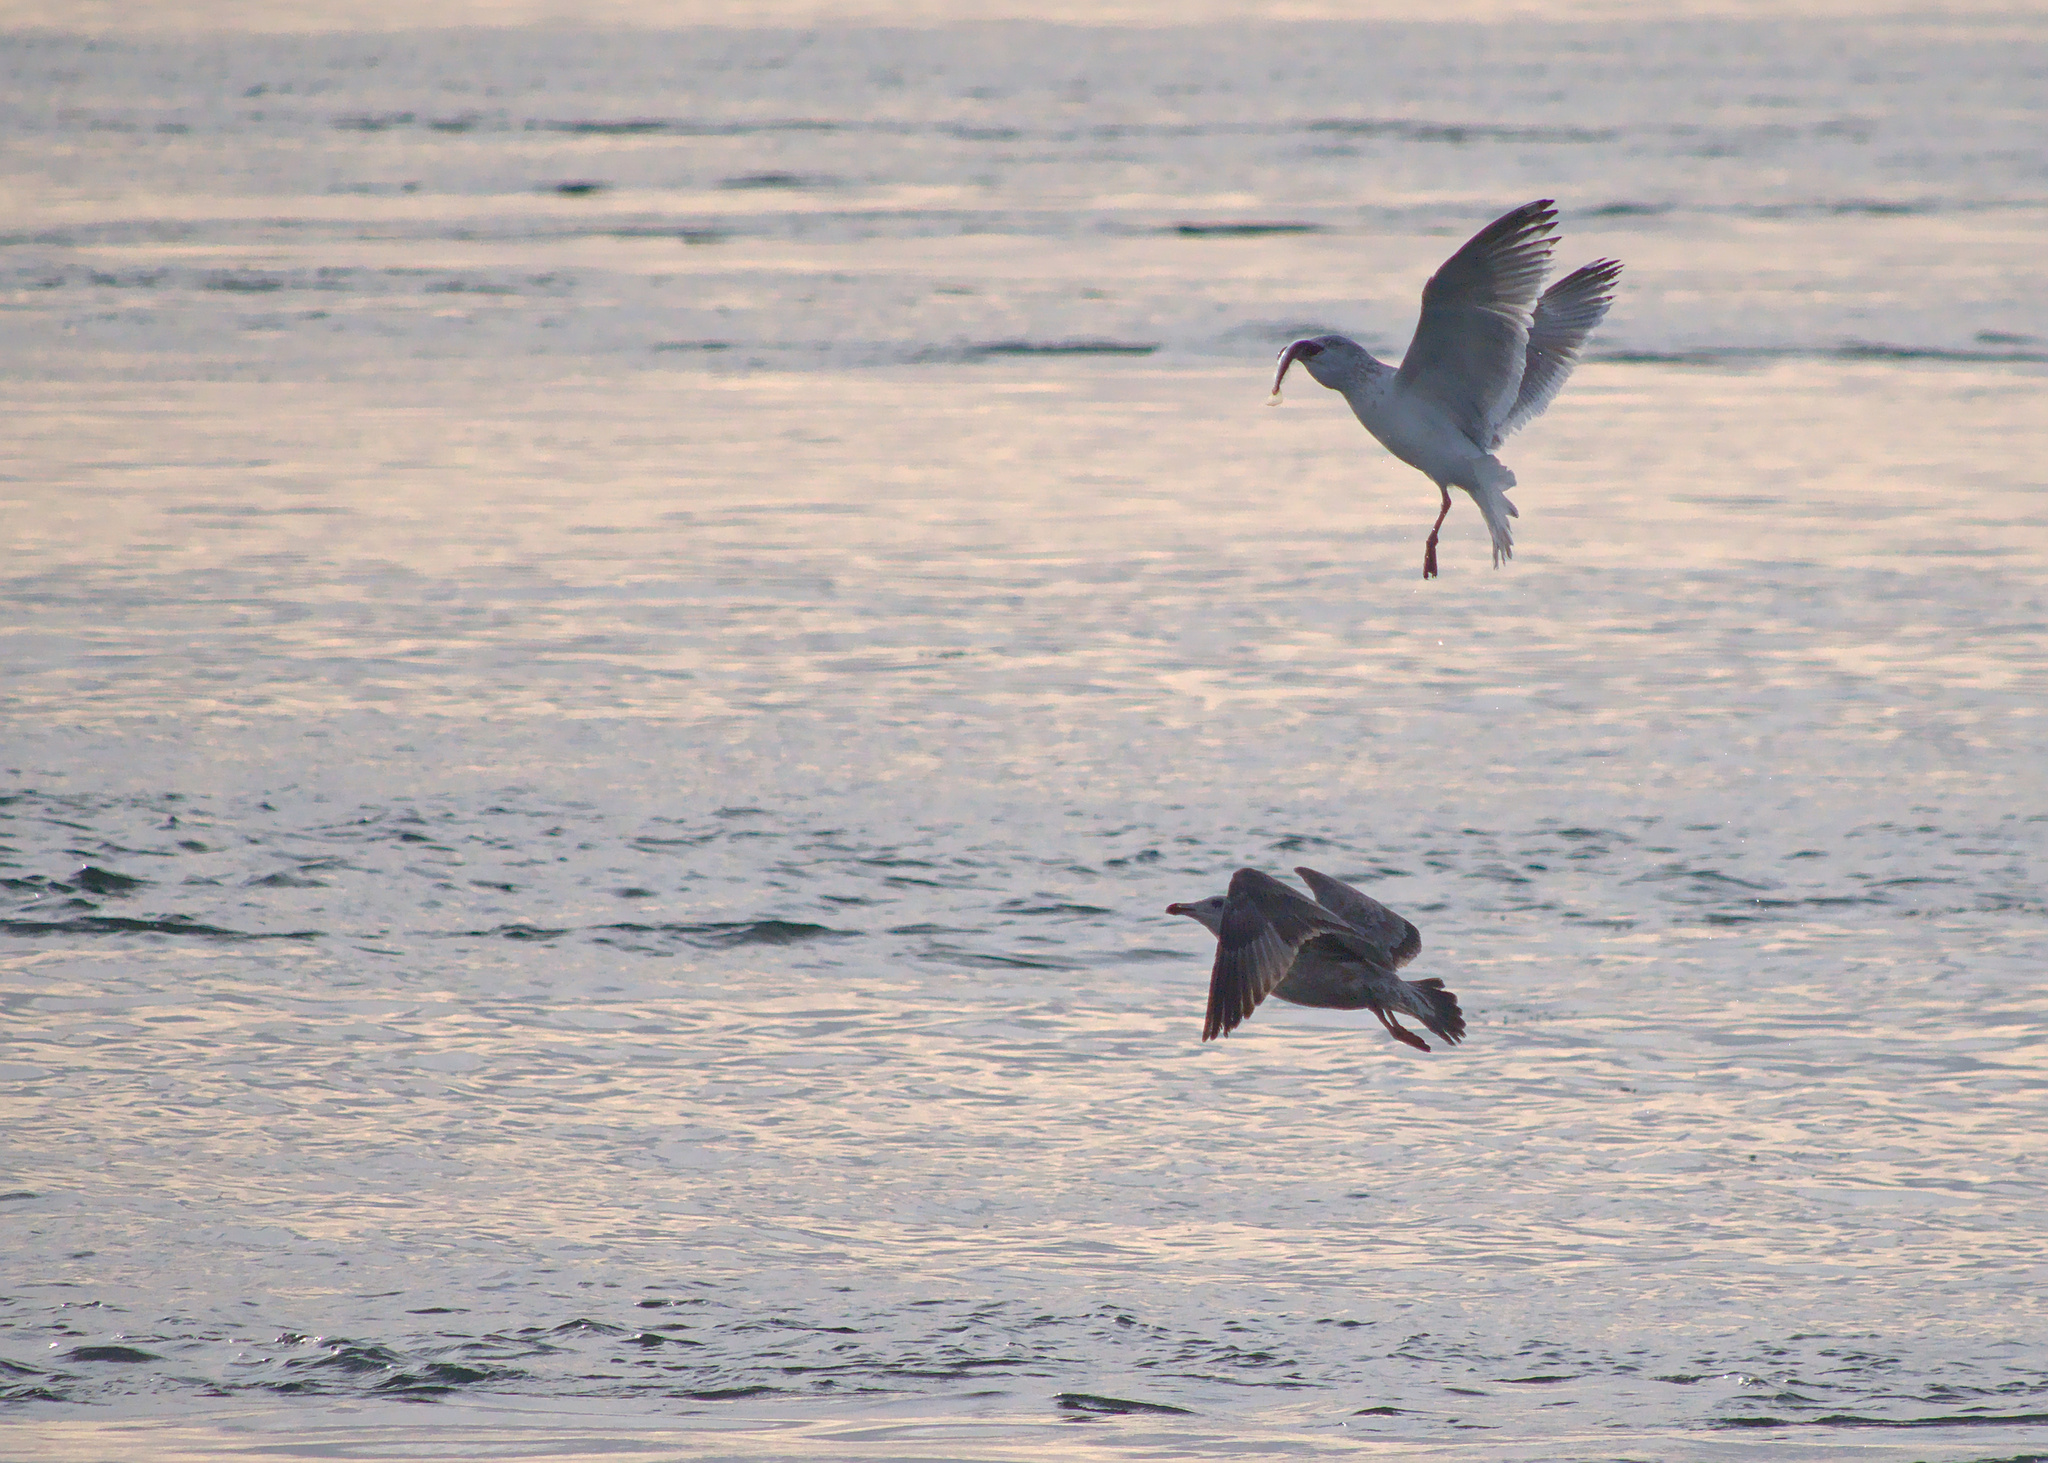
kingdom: Animalia
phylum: Chordata
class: Aves
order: Charadriiformes
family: Laridae
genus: Larus
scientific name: Larus argentatus
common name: Herring gull
